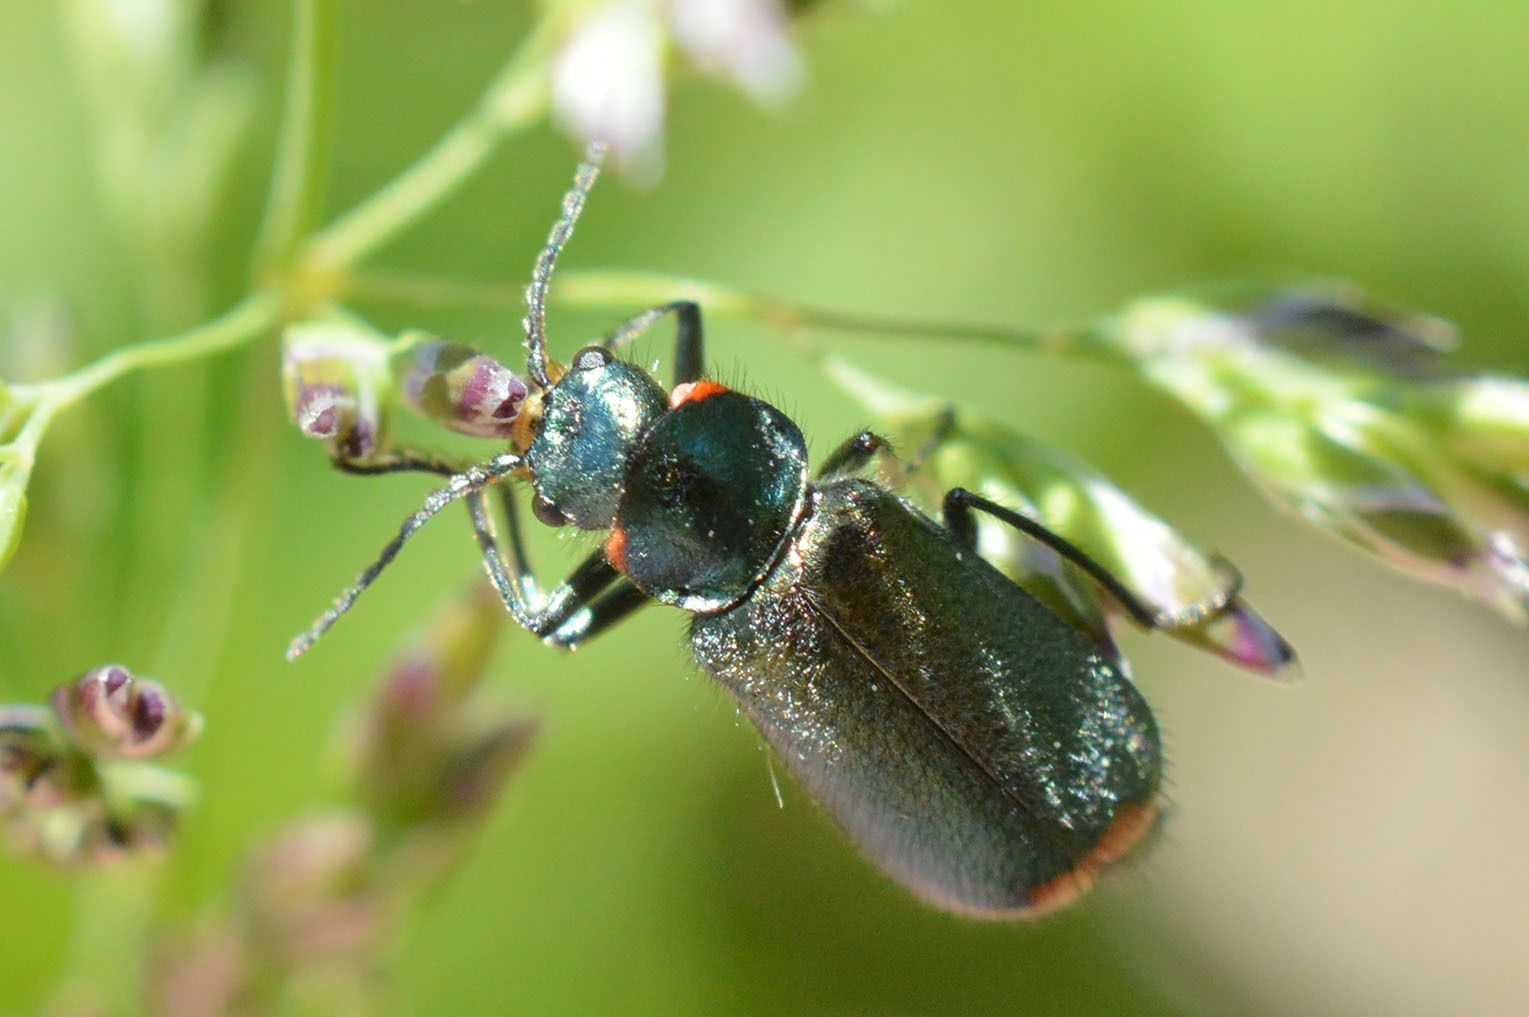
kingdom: Animalia
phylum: Arthropoda
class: Insecta
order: Coleoptera
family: Melyridae
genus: Malachius
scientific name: Malachius bipustulatus
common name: Malachite beetle
